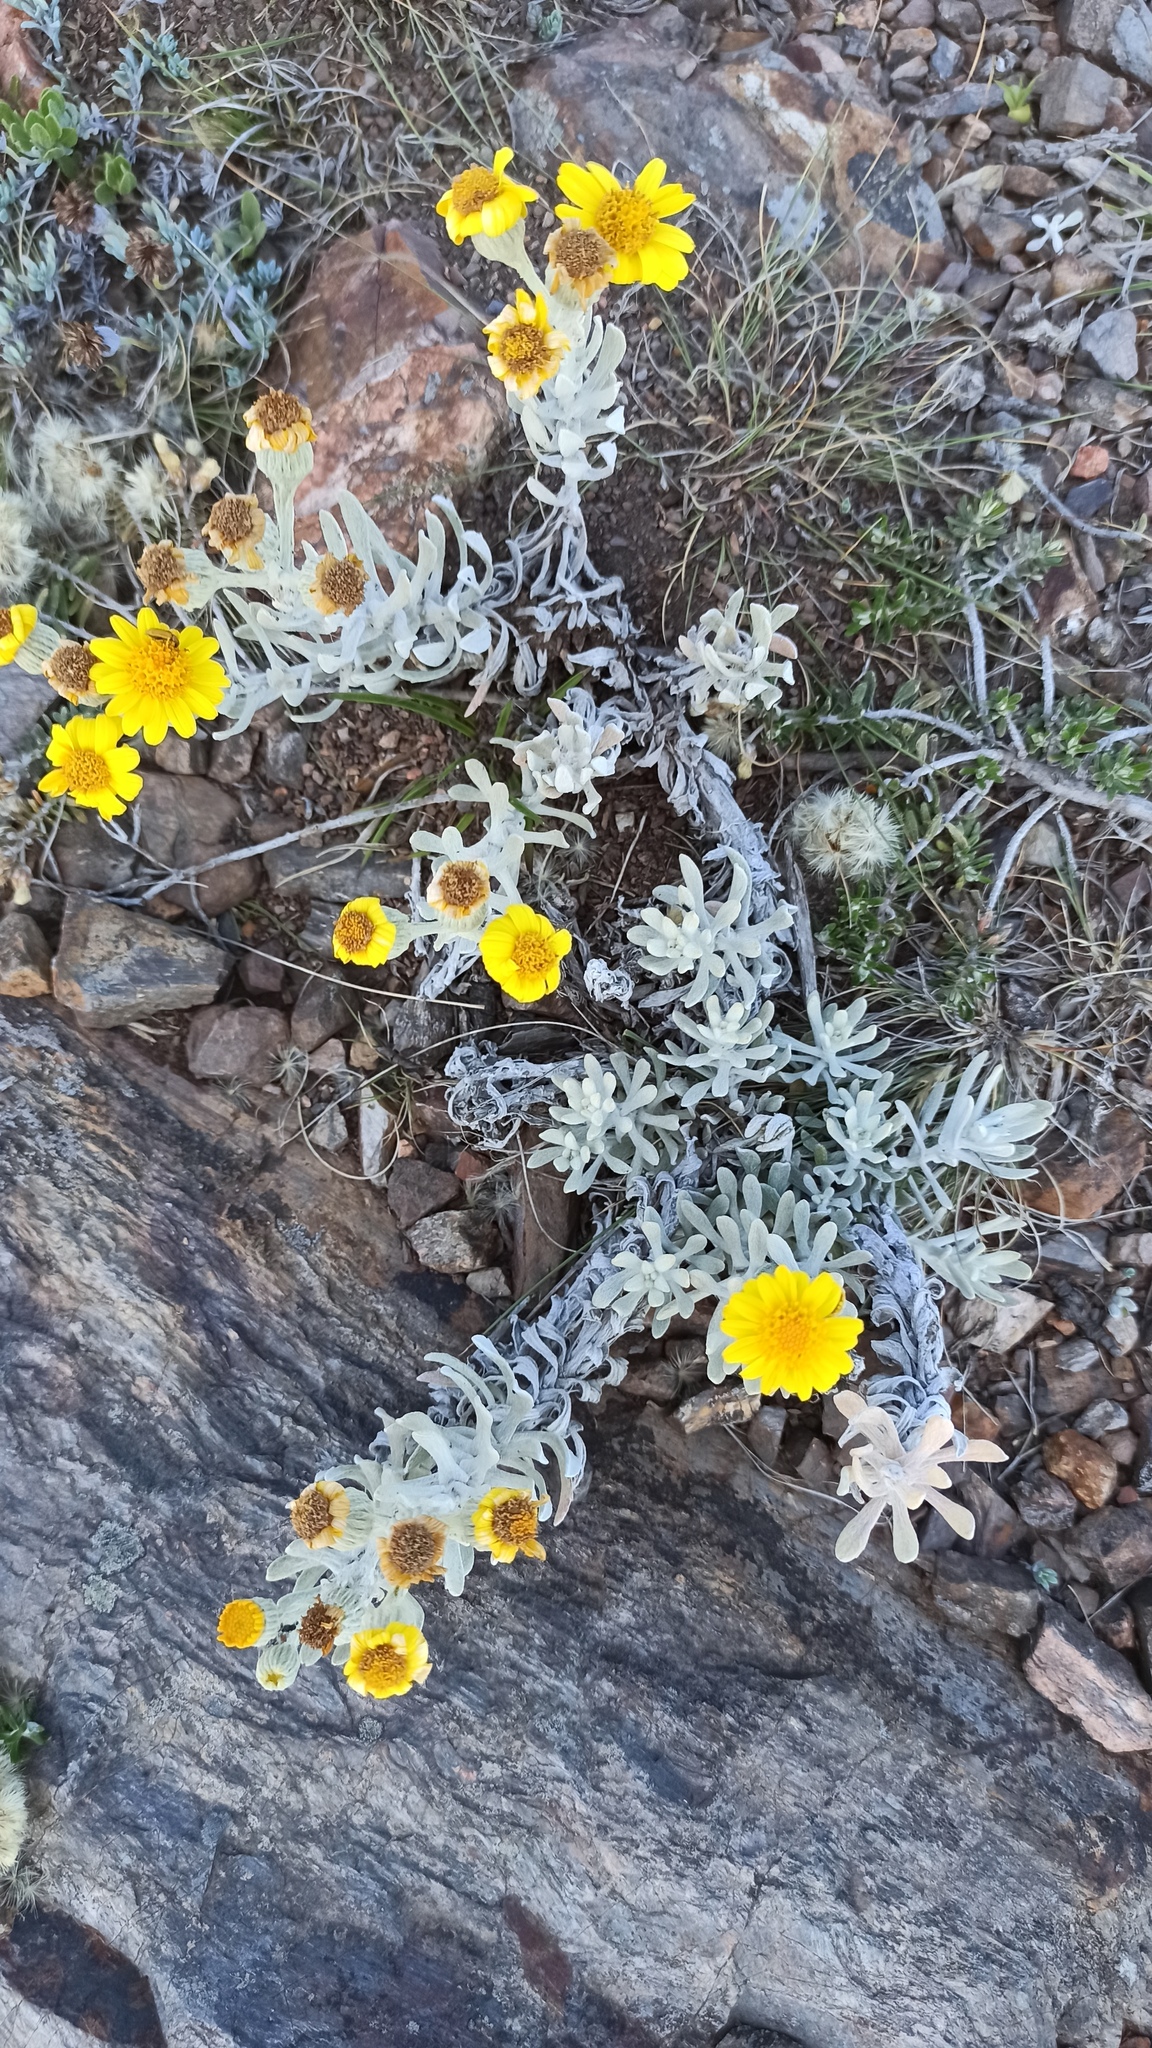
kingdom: Plantae
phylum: Tracheophyta
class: Magnoliopsida
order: Asterales
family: Asteraceae
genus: Senecio
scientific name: Senecio ostenii
